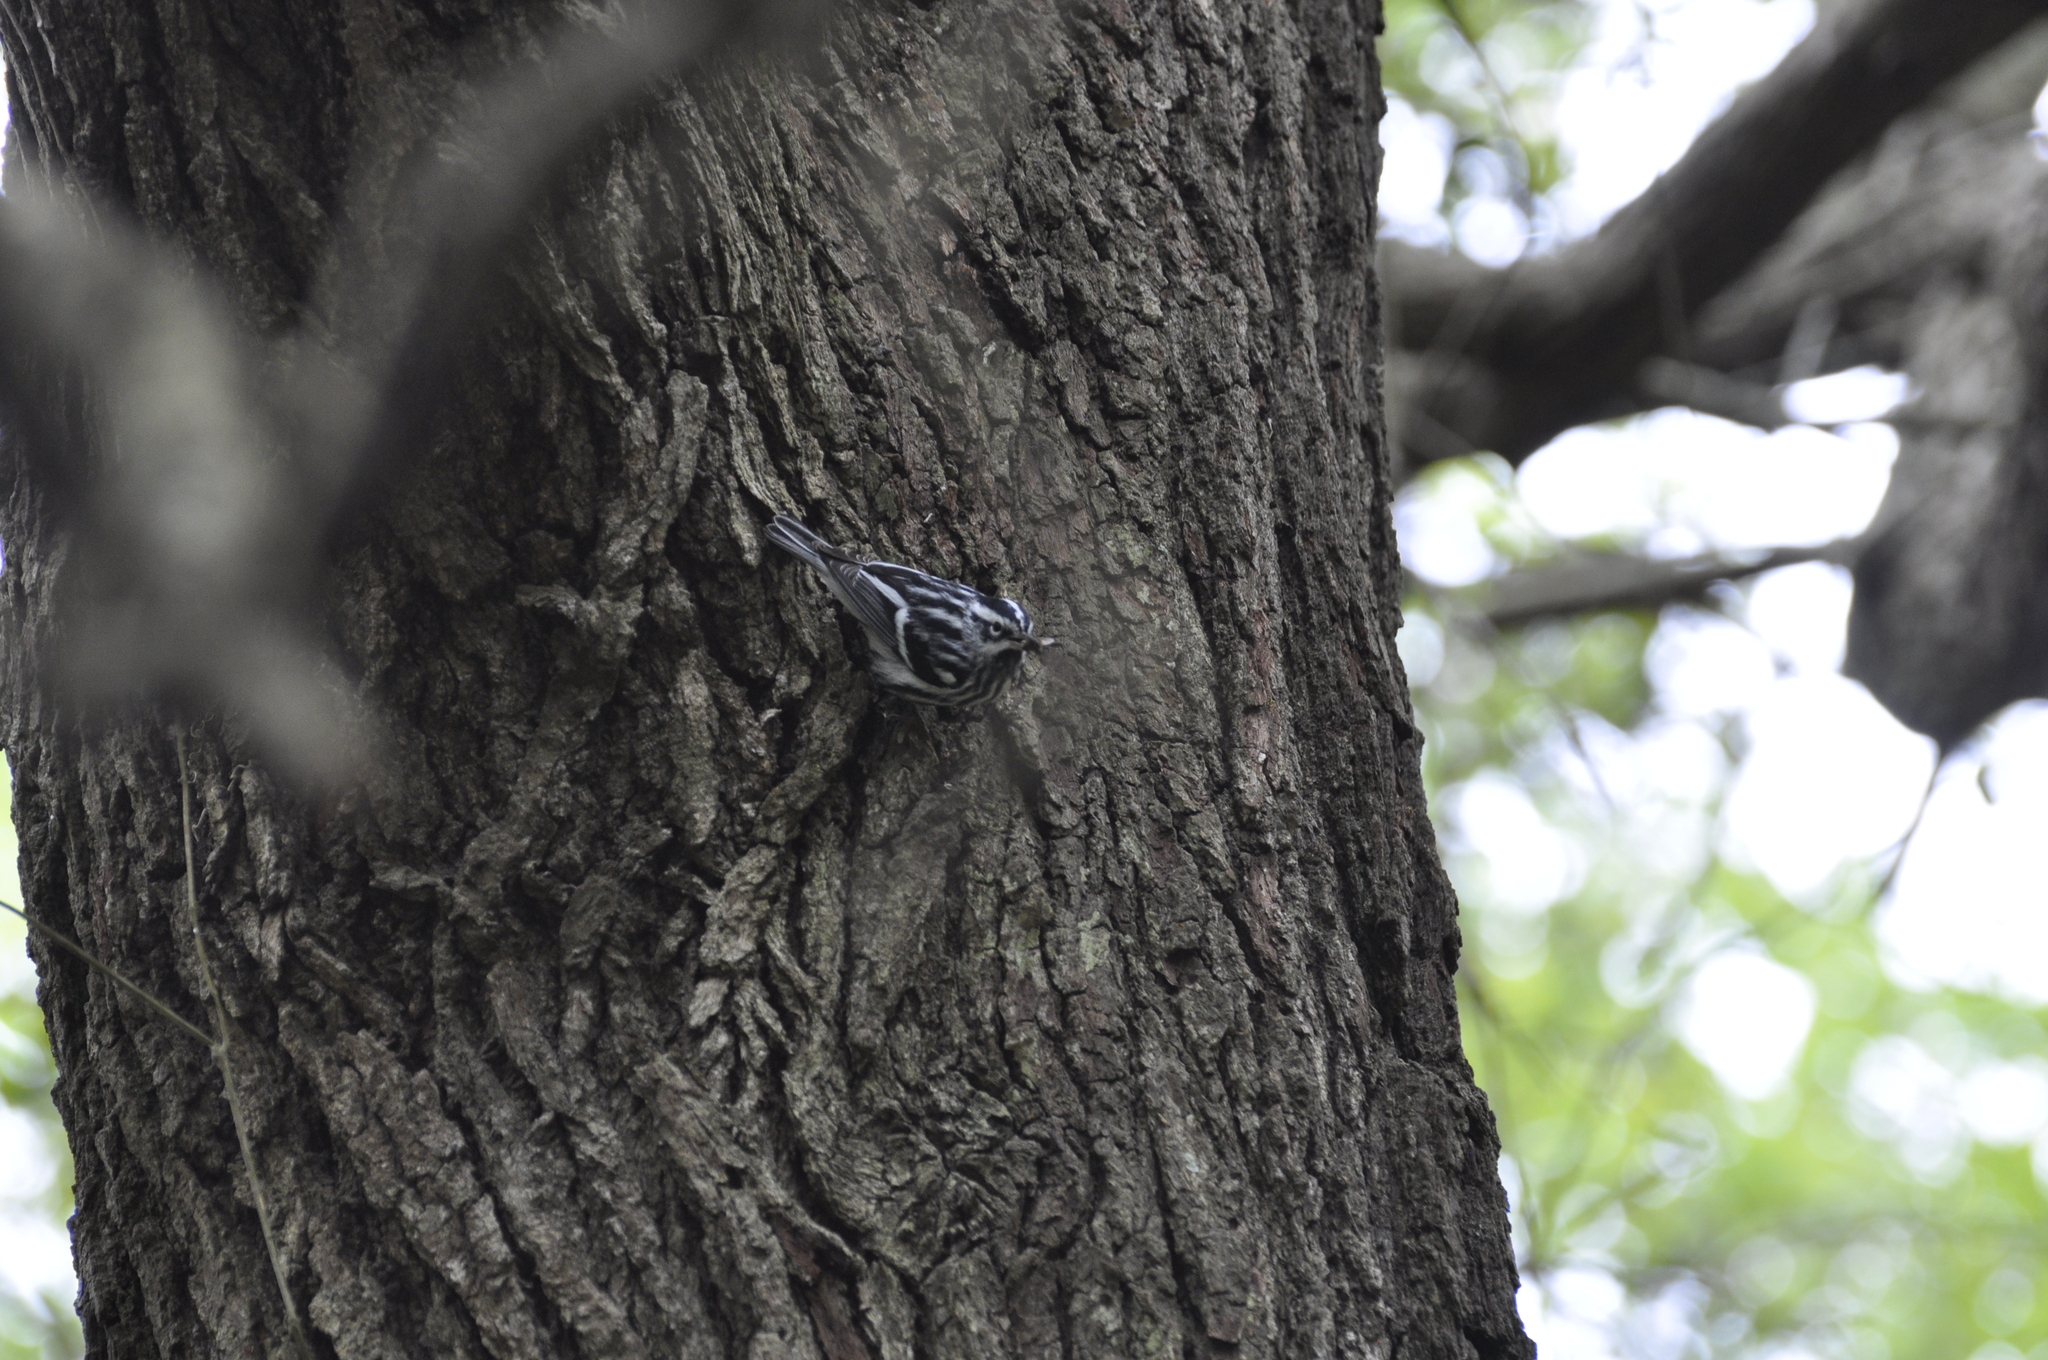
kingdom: Animalia
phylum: Chordata
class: Aves
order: Passeriformes
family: Parulidae
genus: Mniotilta
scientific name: Mniotilta varia
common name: Black-and-white warbler
